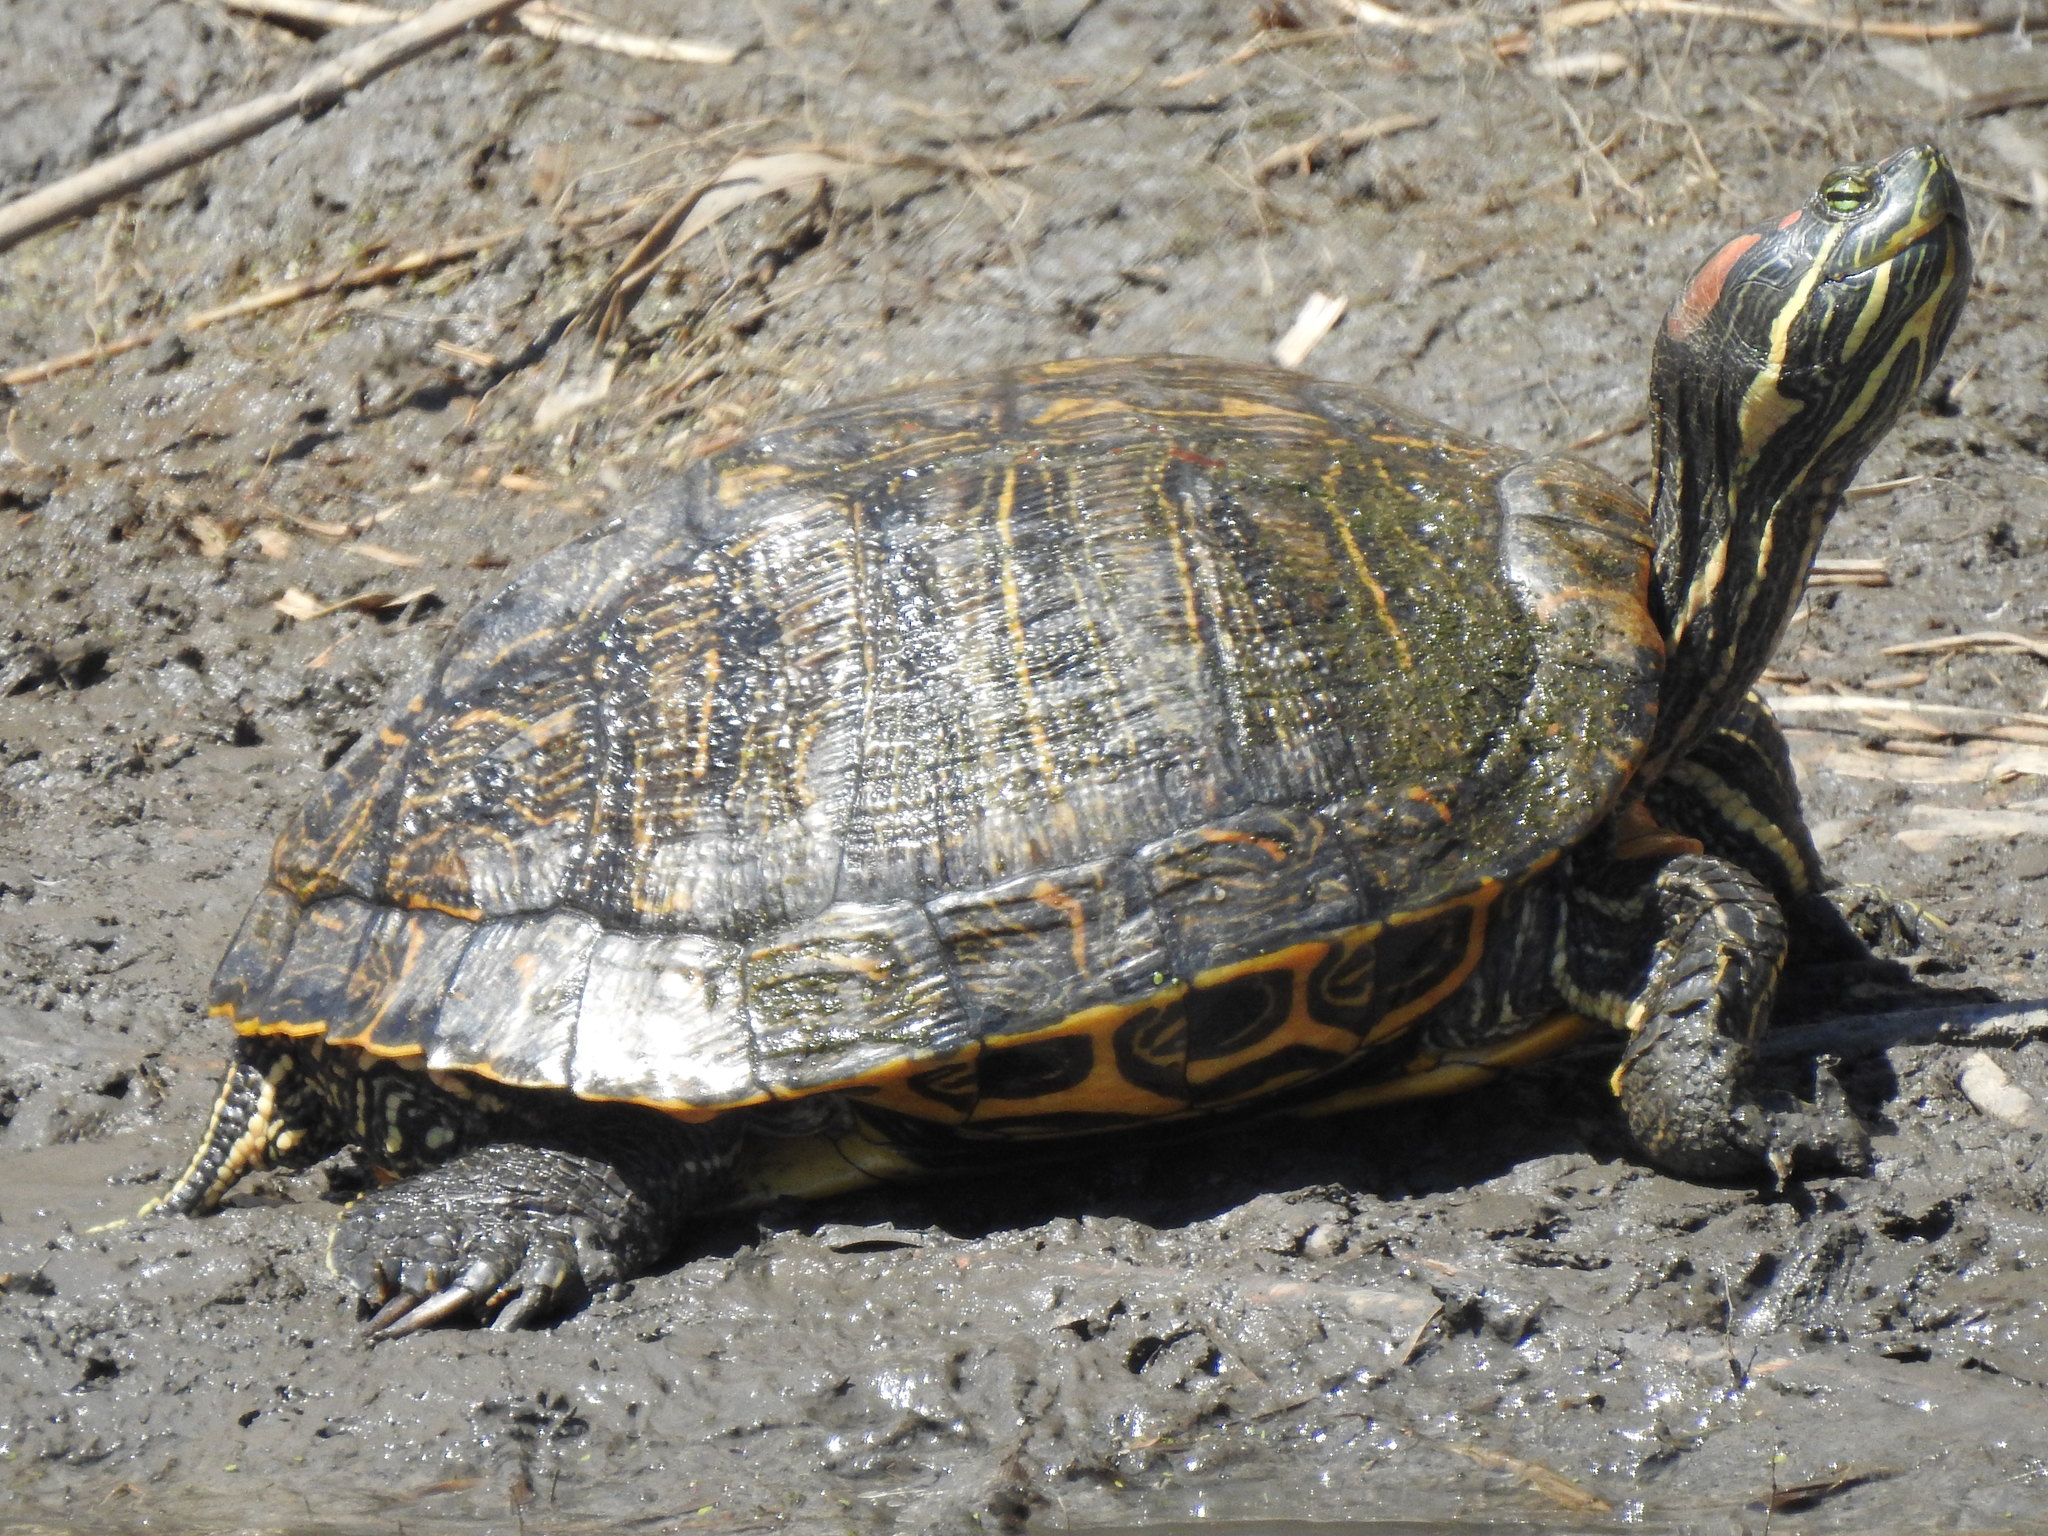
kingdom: Animalia
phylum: Chordata
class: Testudines
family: Emydidae
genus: Trachemys
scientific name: Trachemys scripta
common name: Slider
